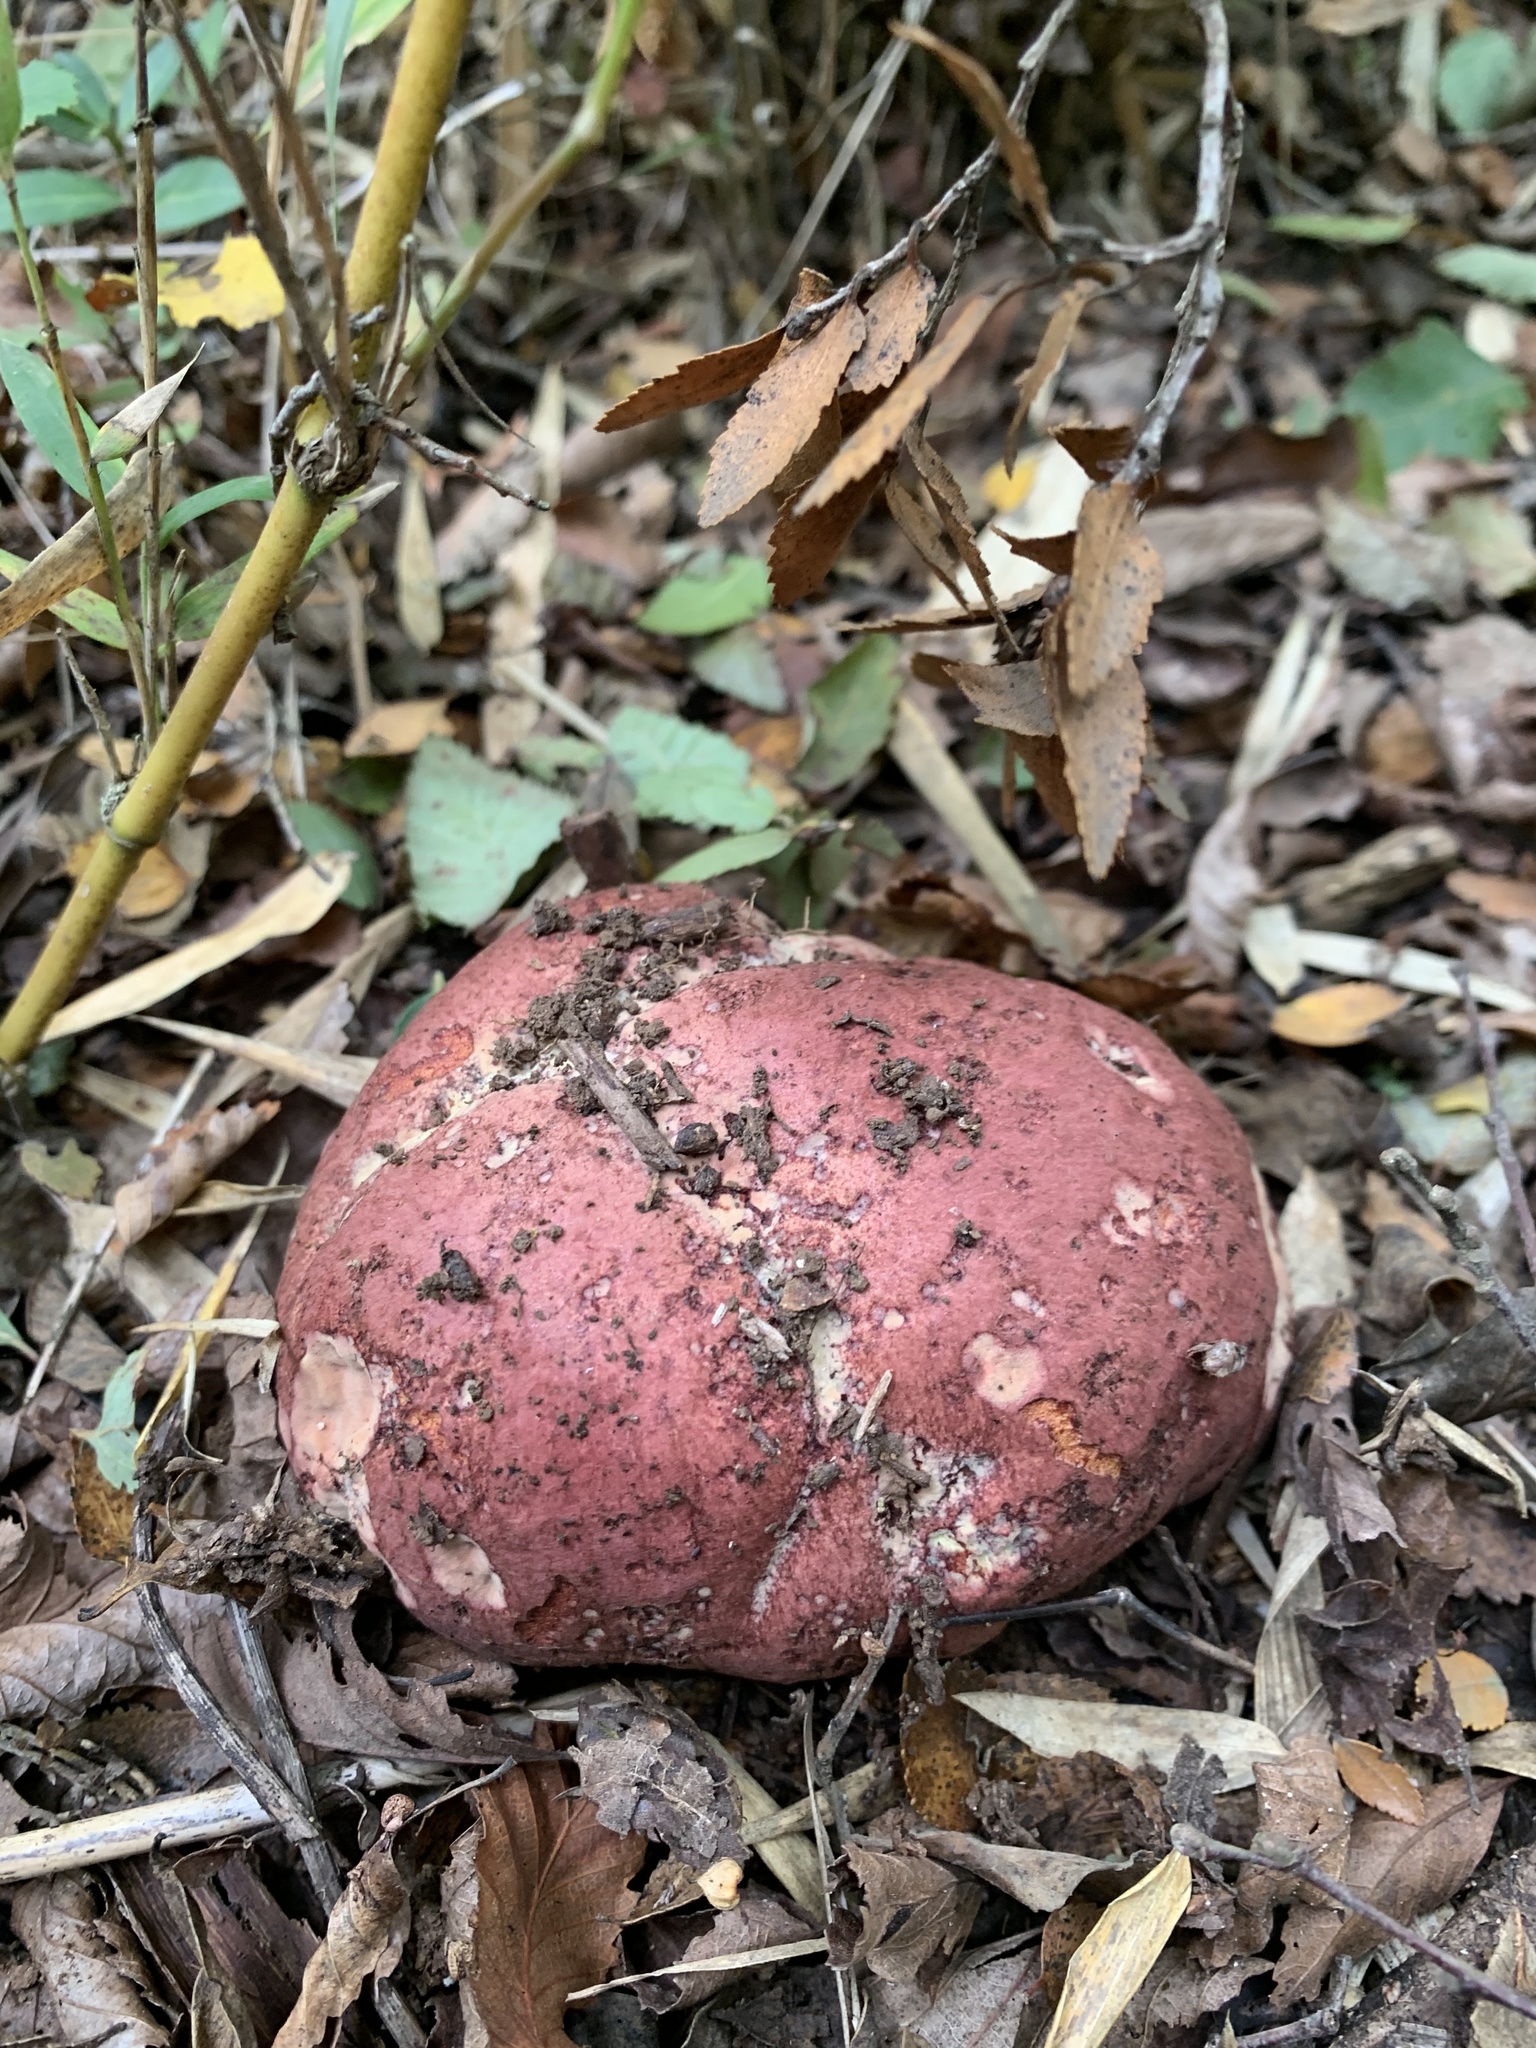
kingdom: Fungi
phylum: Basidiomycota
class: Agaricomycetes
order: Boletales
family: Boletaceae
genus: Butyriboletus
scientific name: Butyriboletus loyo
